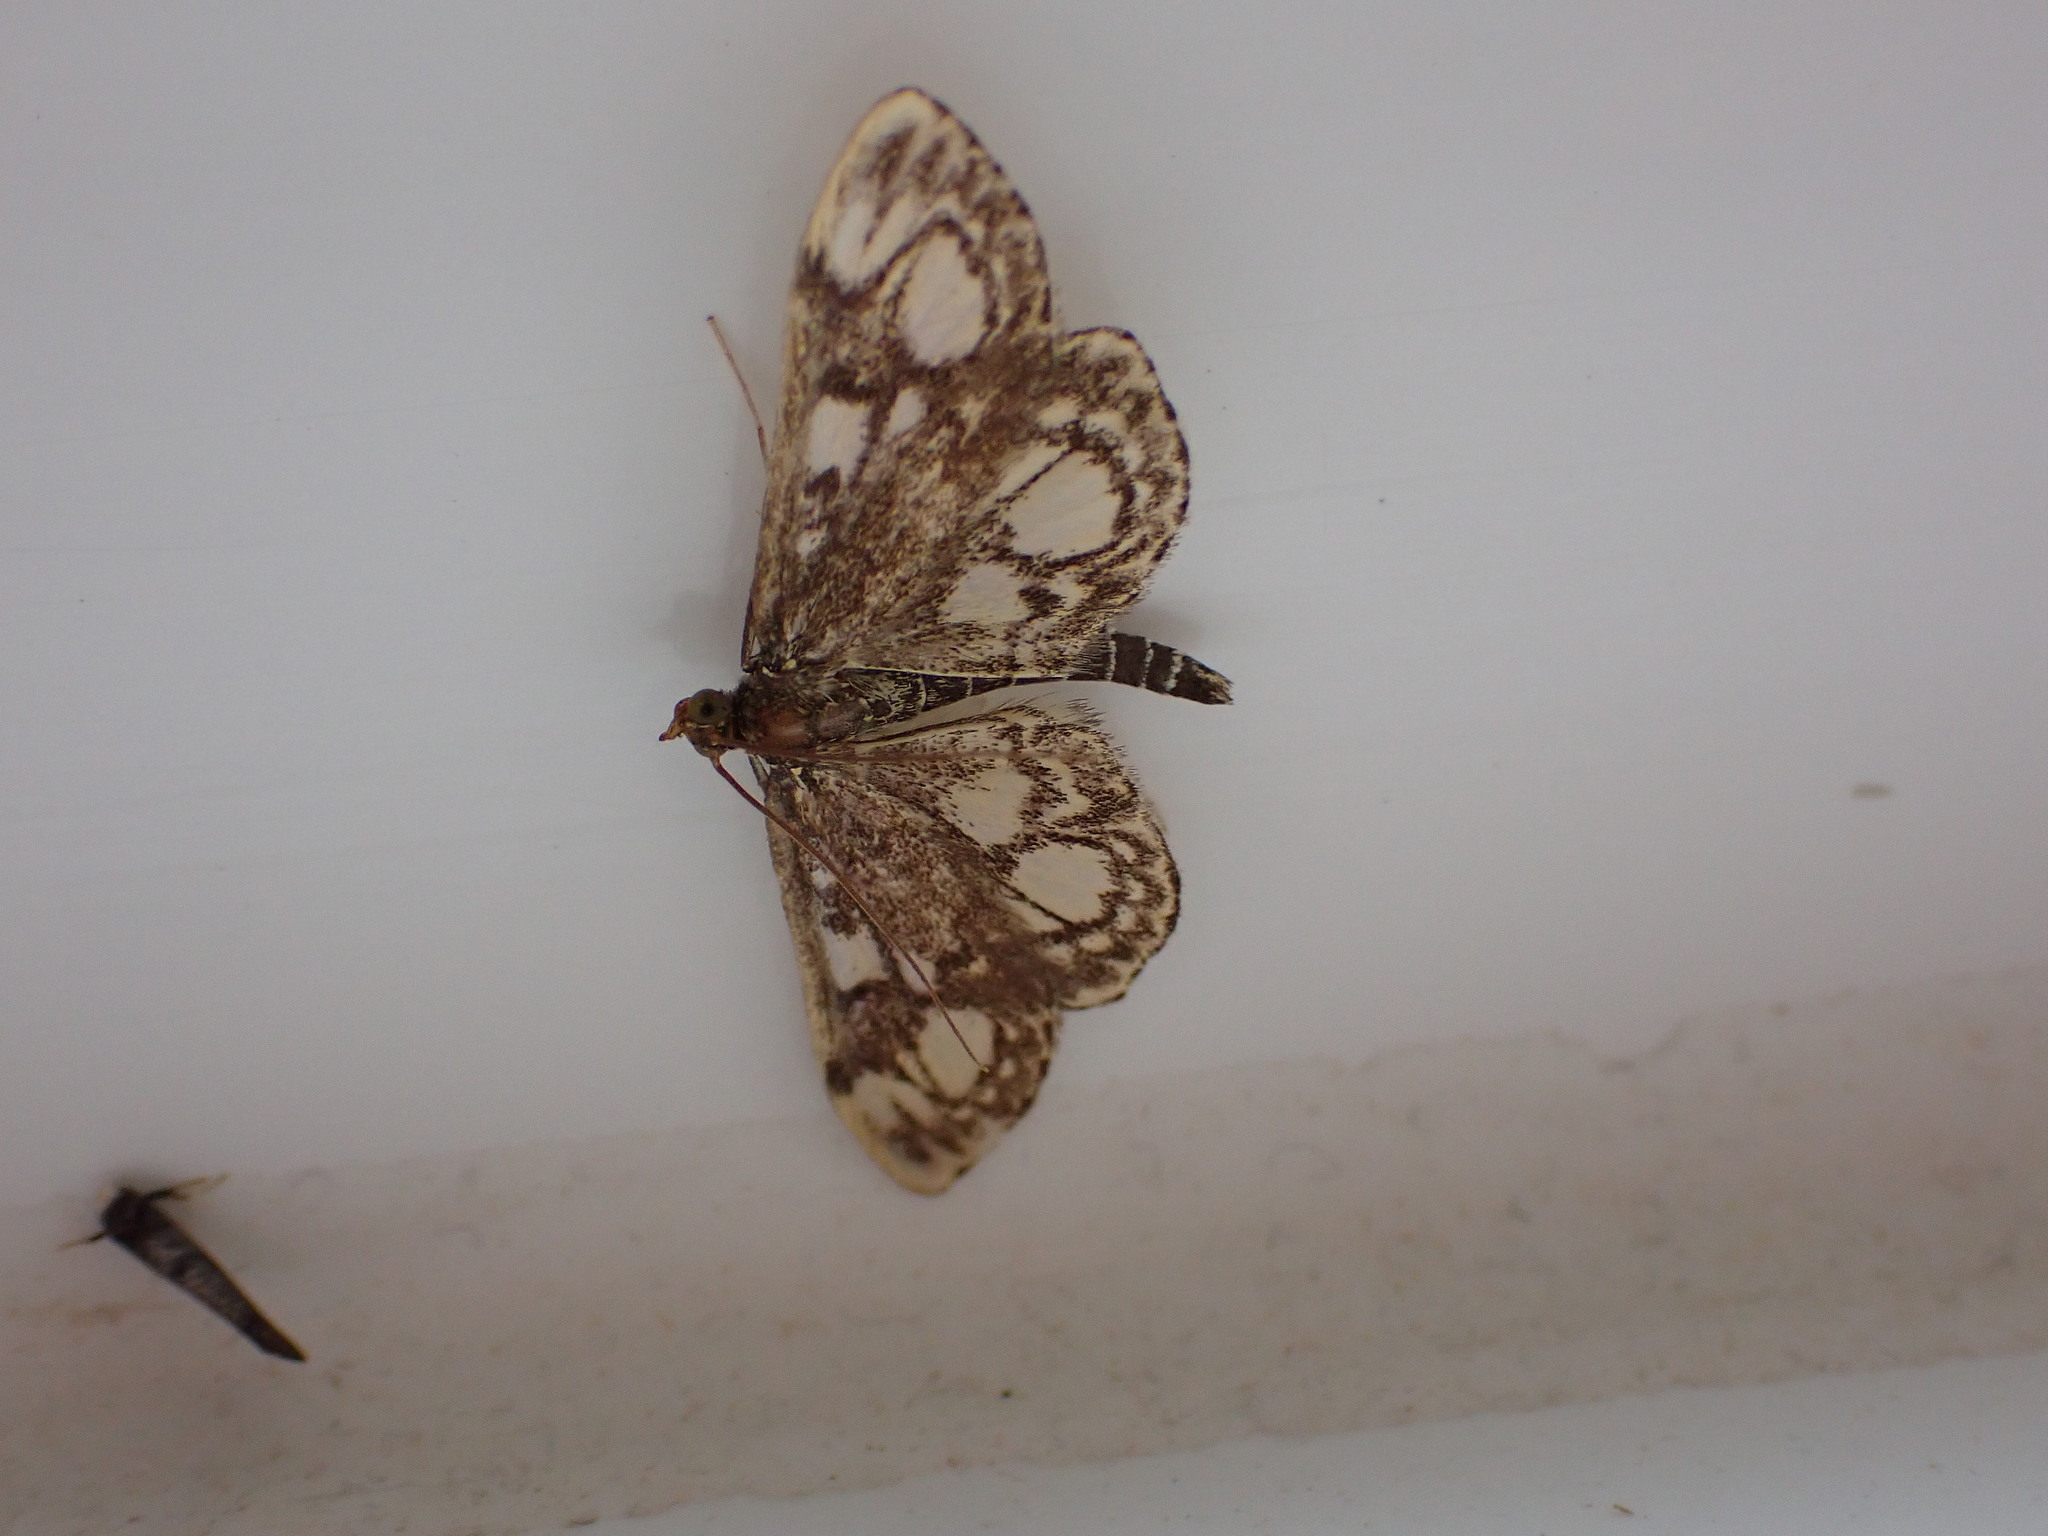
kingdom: Animalia
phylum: Arthropoda
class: Insecta
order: Lepidoptera
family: Crambidae
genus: Anania
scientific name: Anania coronata
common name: Elder pearl
